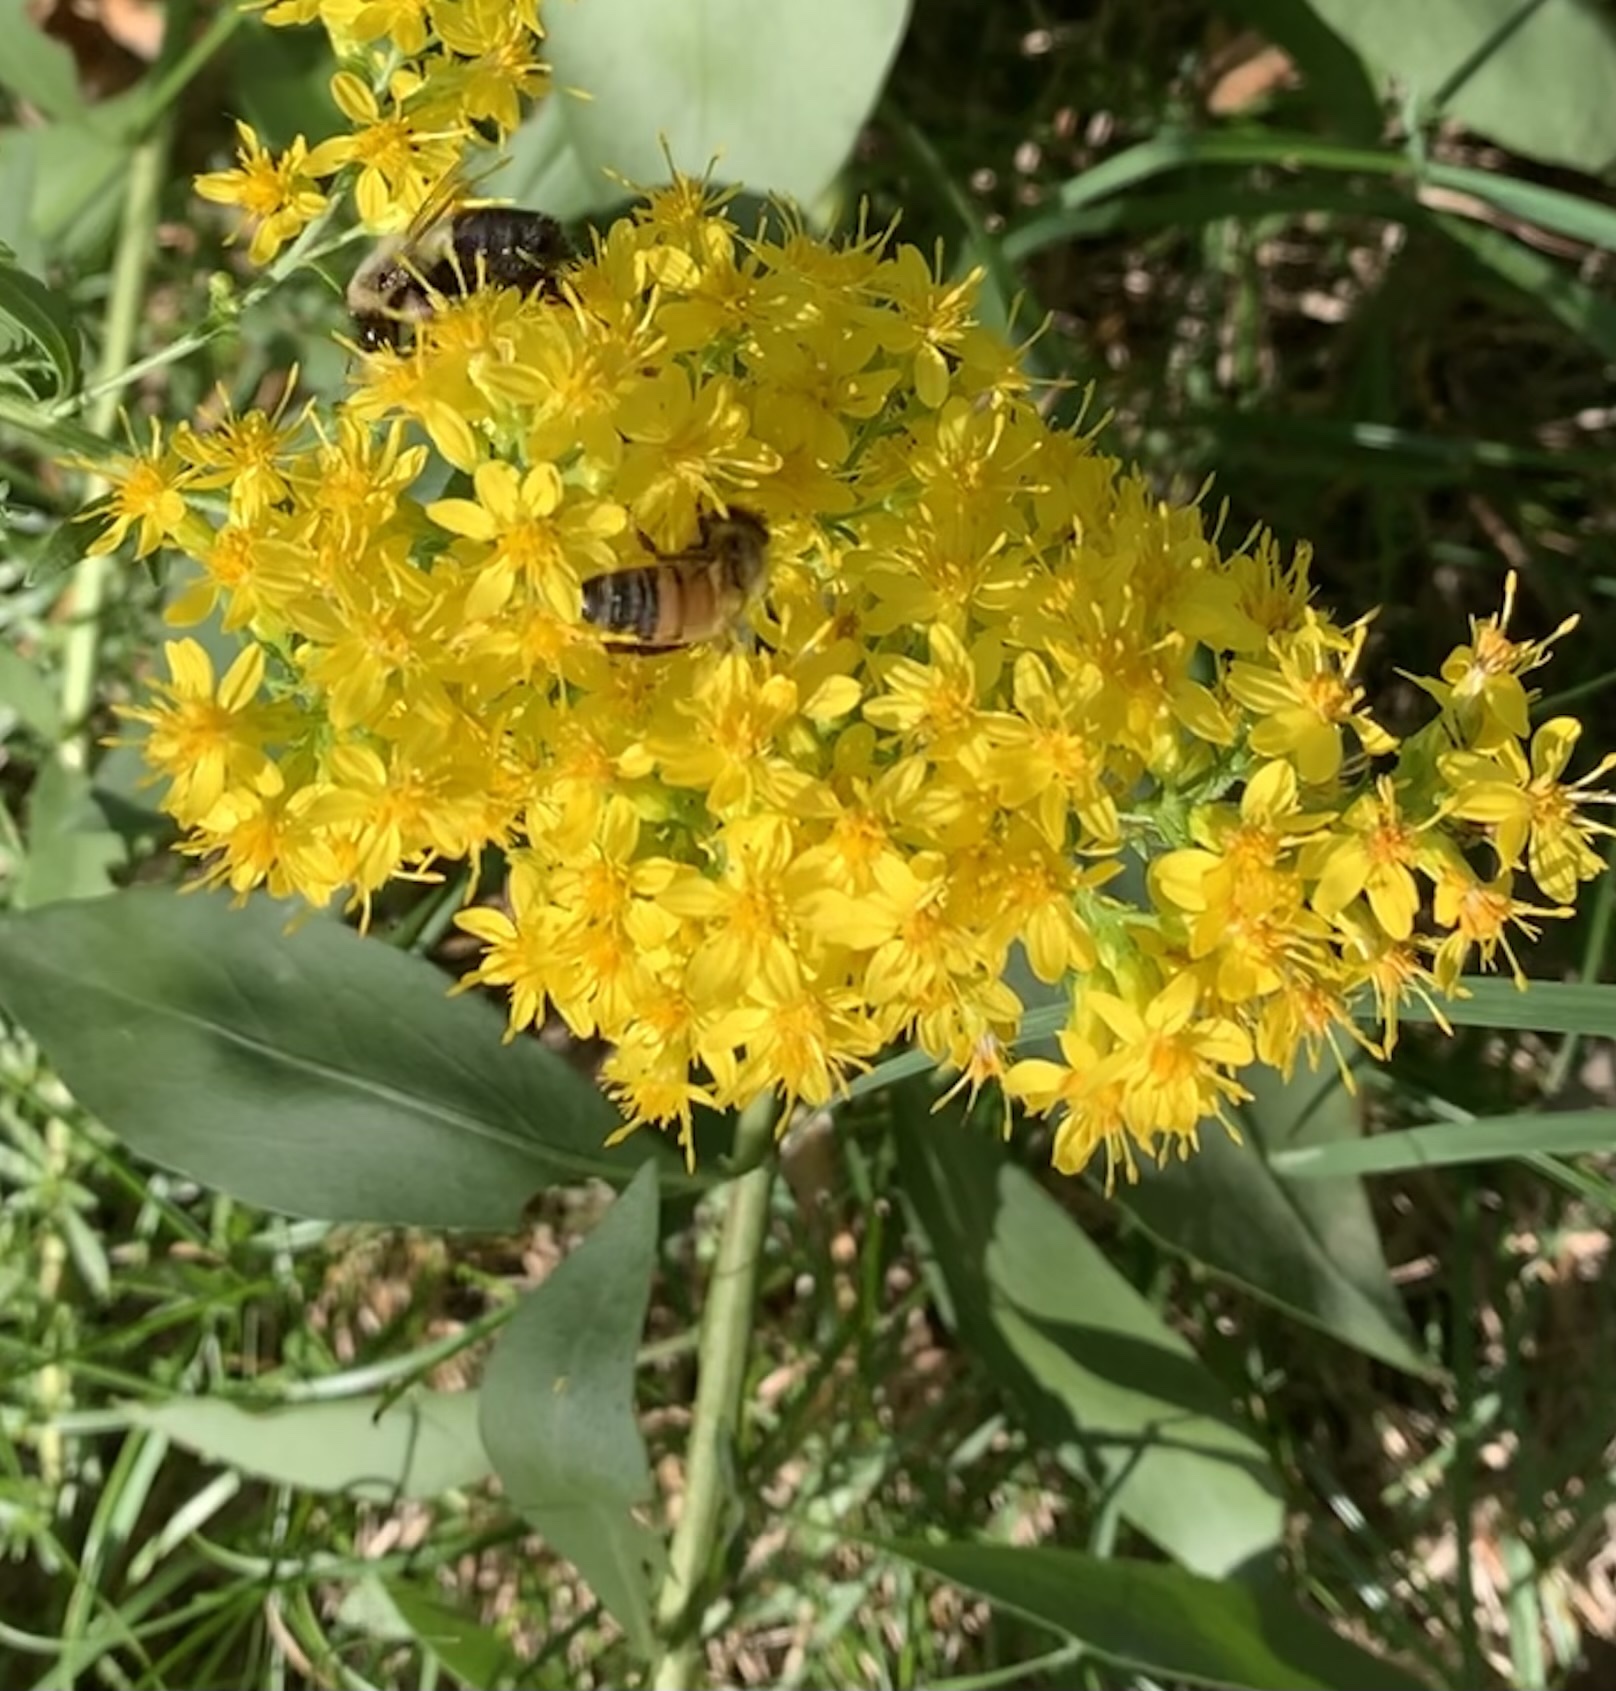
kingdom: Animalia
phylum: Arthropoda
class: Insecta
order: Hymenoptera
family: Apidae
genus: Apis
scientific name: Apis mellifera
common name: Honey bee
